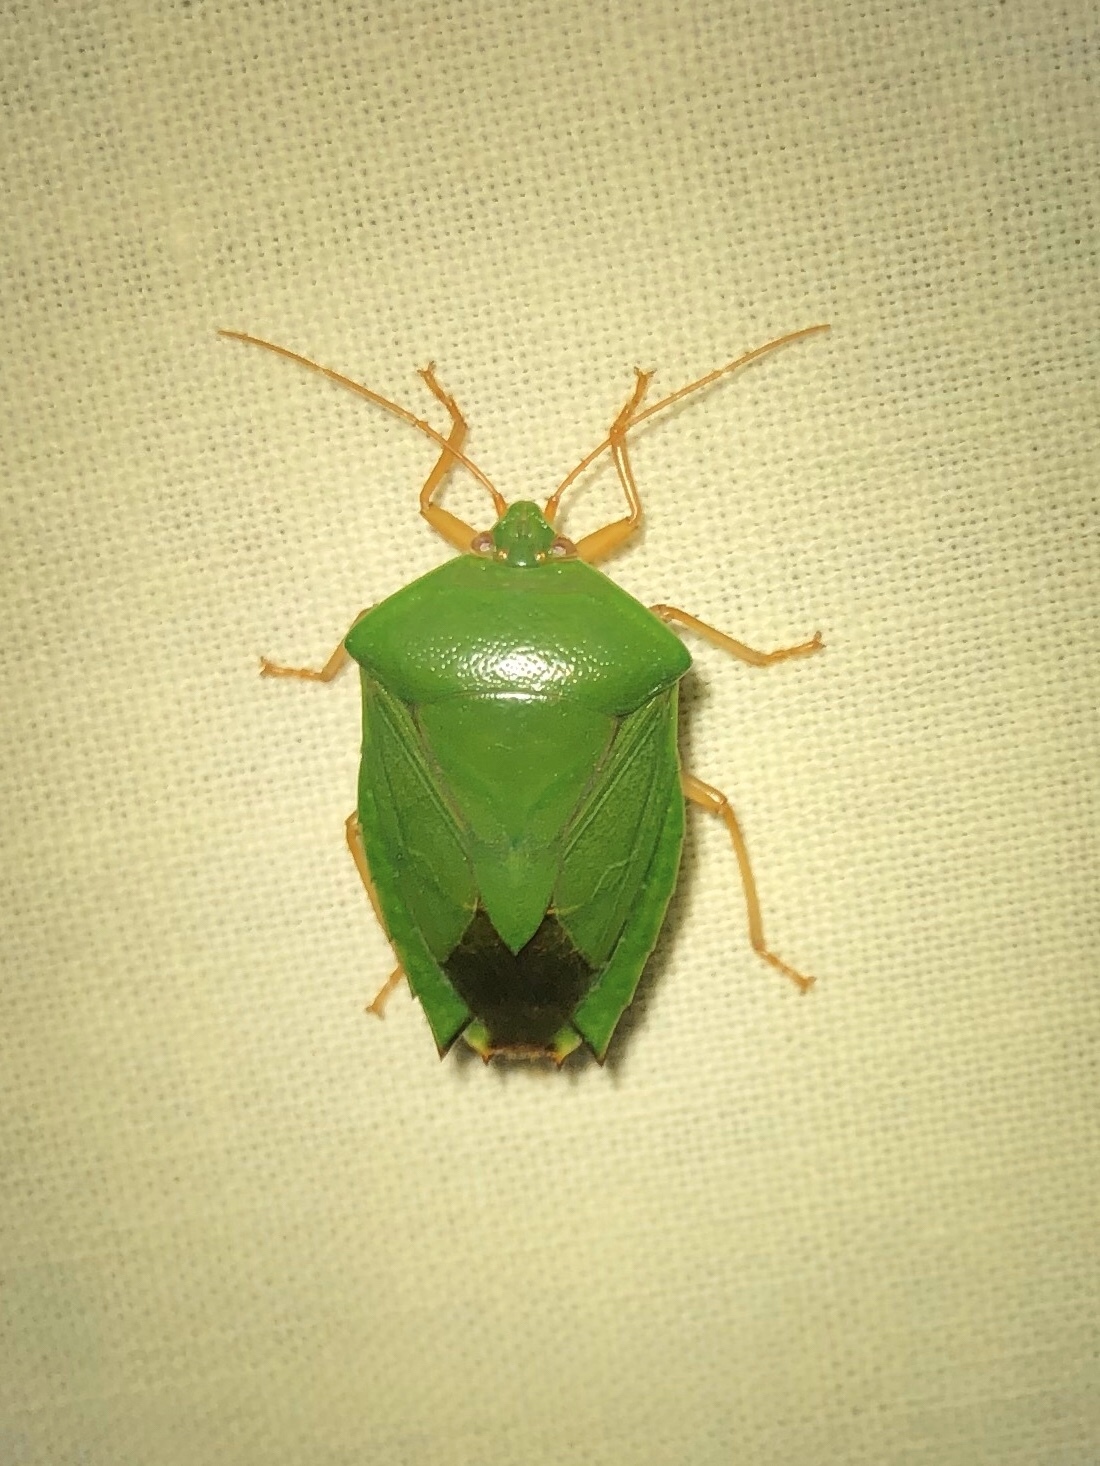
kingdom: Animalia
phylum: Arthropoda
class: Insecta
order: Hemiptera
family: Pentatomidae
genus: Edessa
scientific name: Edessa junix
